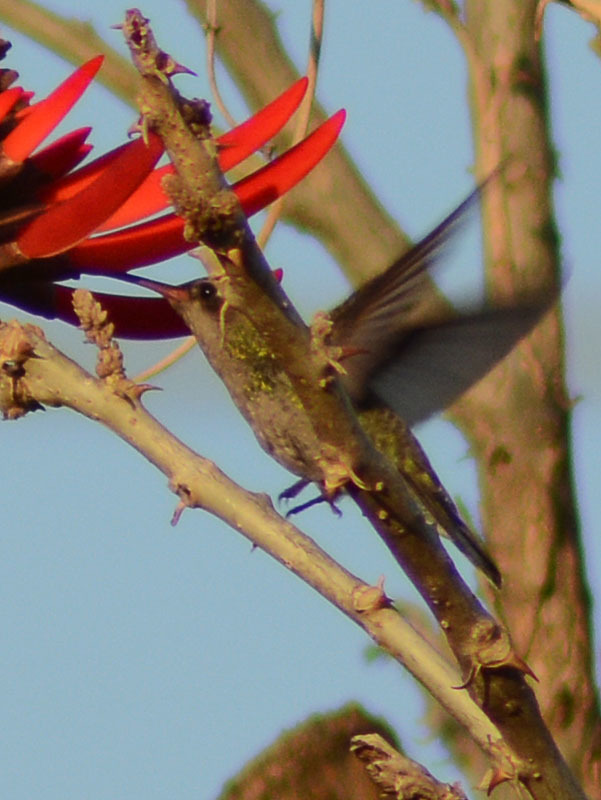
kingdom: Animalia
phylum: Chordata
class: Aves
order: Apodiformes
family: Trochilidae
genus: Cynanthus
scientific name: Cynanthus latirostris
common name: Broad-billed hummingbird
